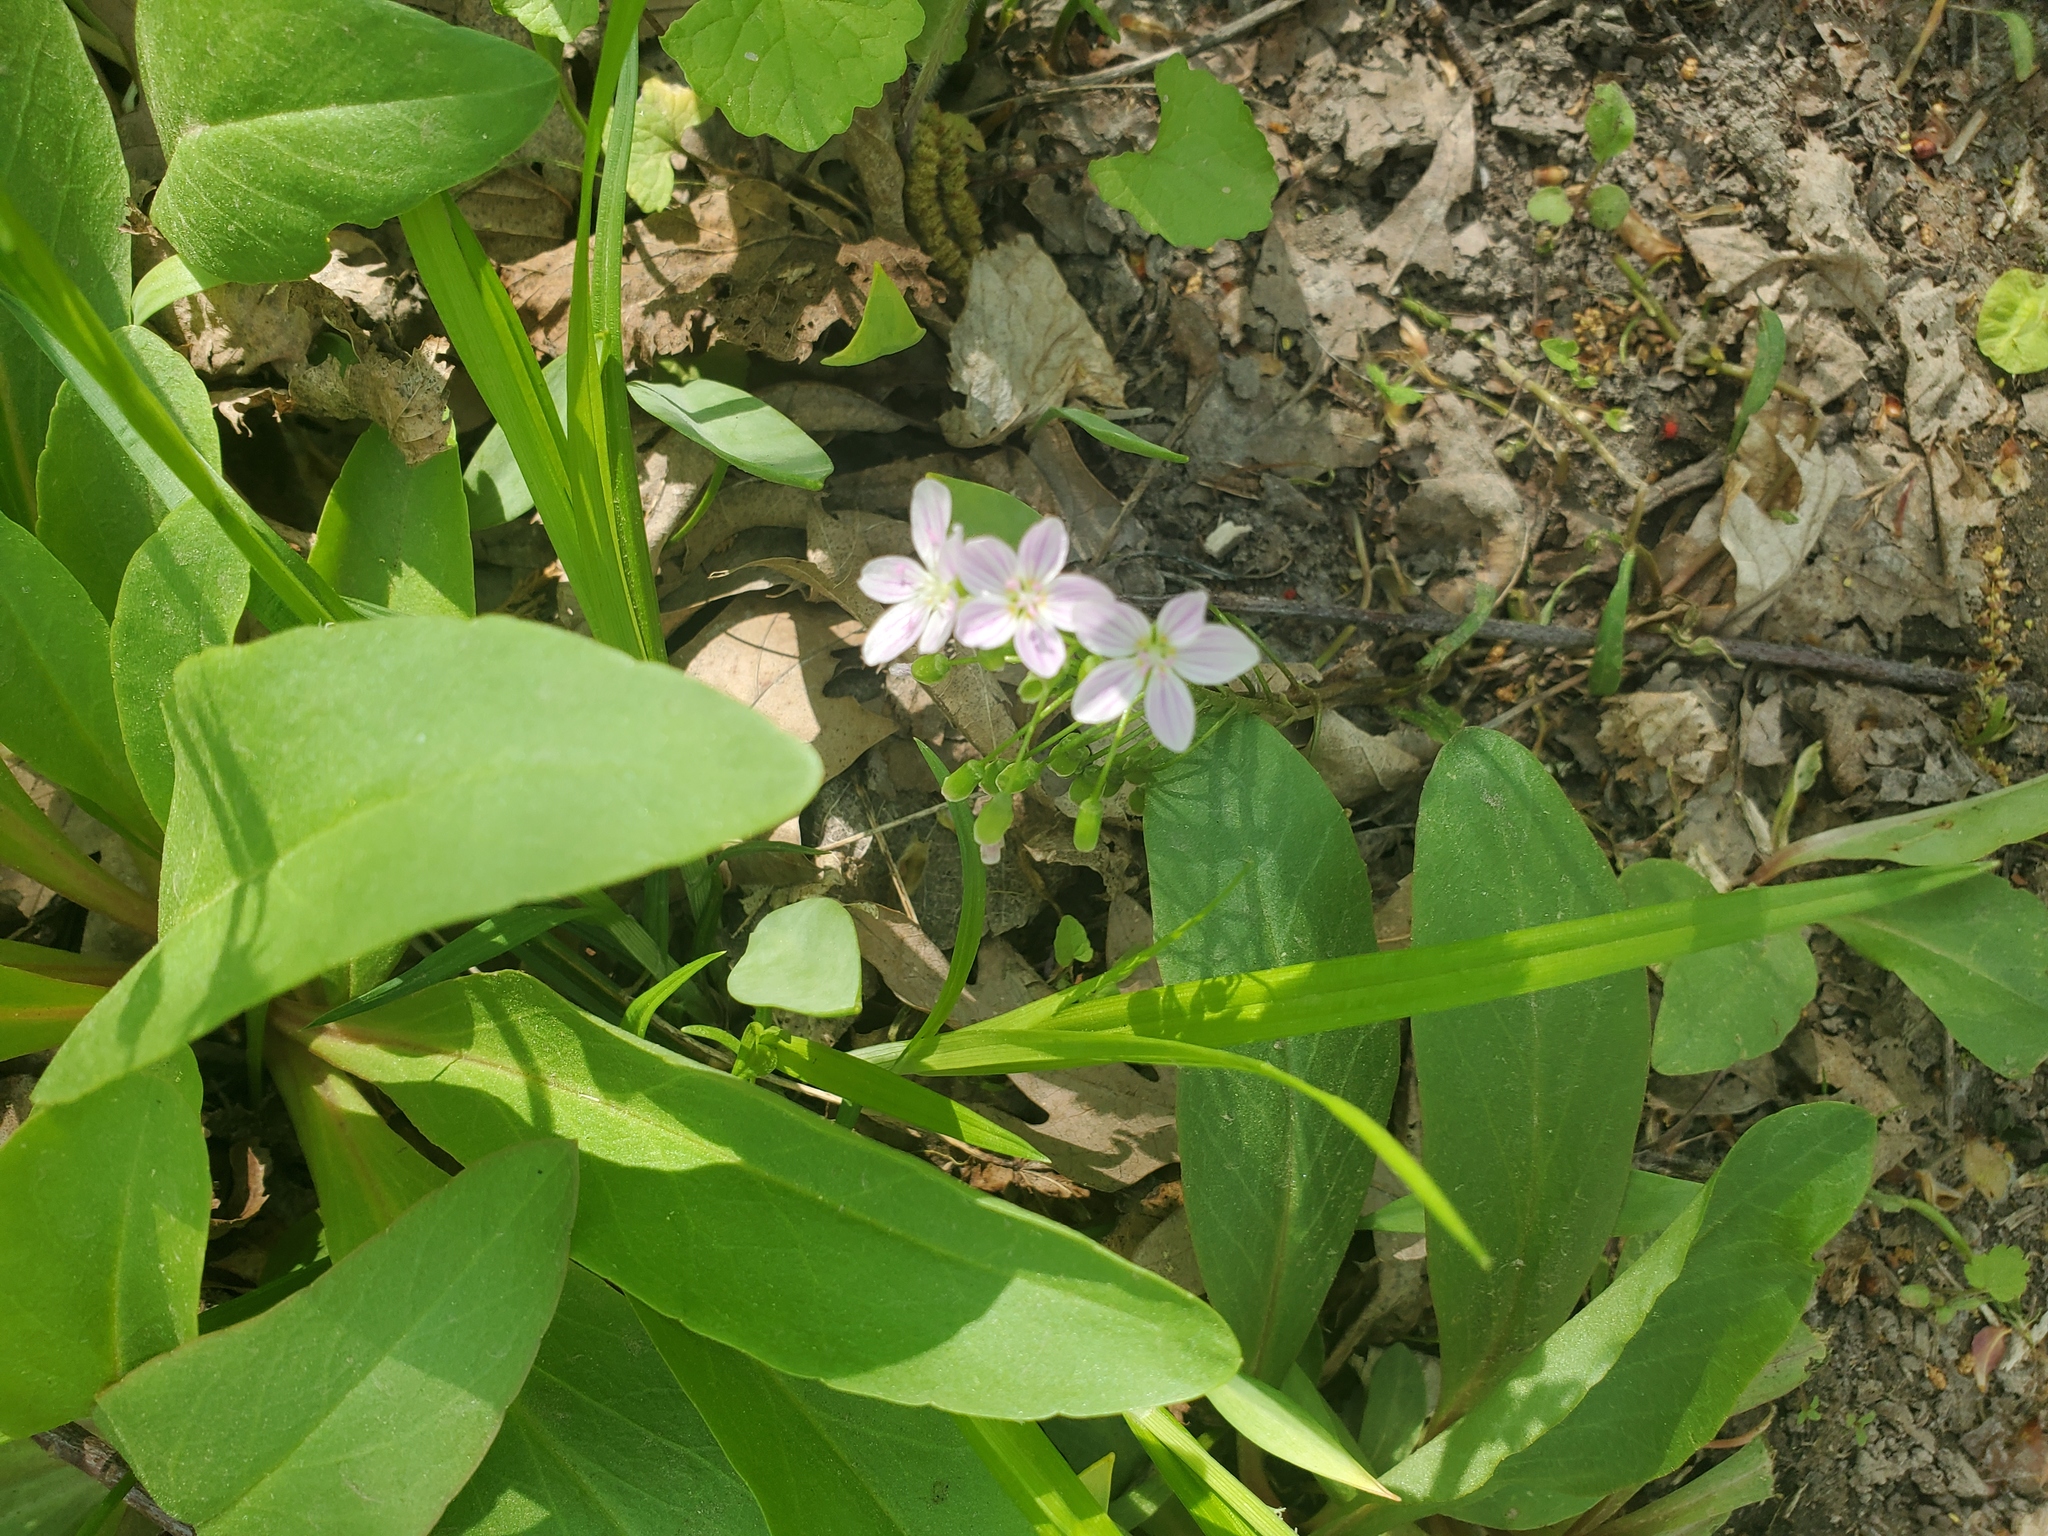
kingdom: Plantae
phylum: Tracheophyta
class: Magnoliopsida
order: Caryophyllales
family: Montiaceae
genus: Claytonia
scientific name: Claytonia virginica
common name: Virginia springbeauty
